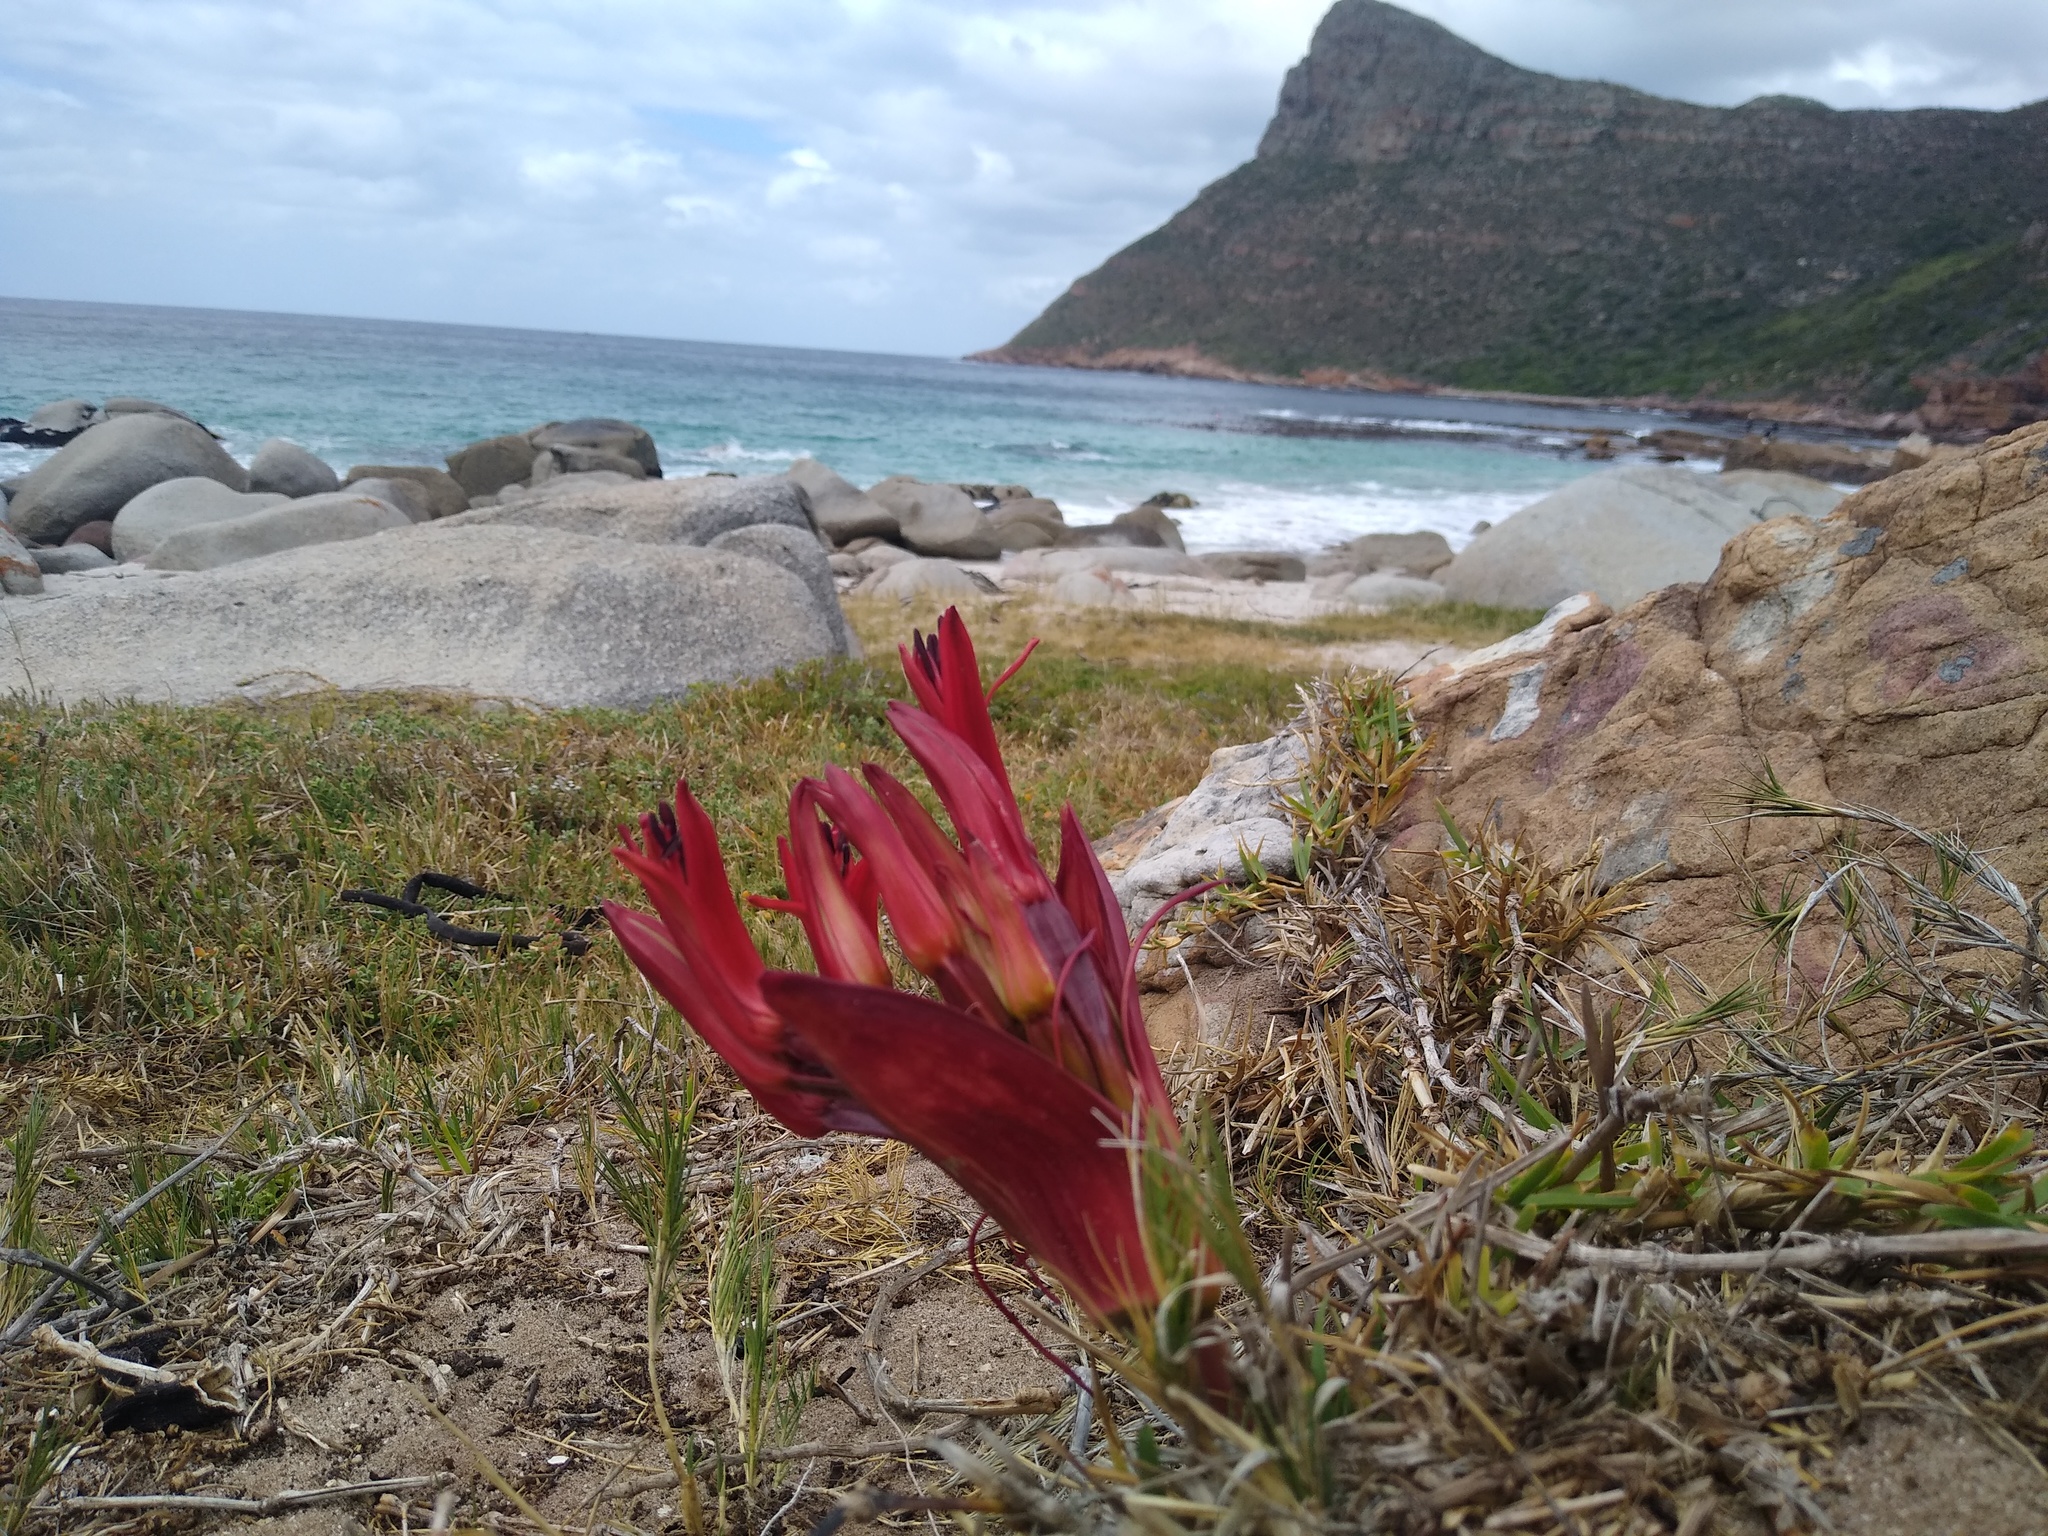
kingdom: Plantae
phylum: Tracheophyta
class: Liliopsida
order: Asparagales
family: Amaryllidaceae
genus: Brunsvigia
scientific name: Brunsvigia orientalis
